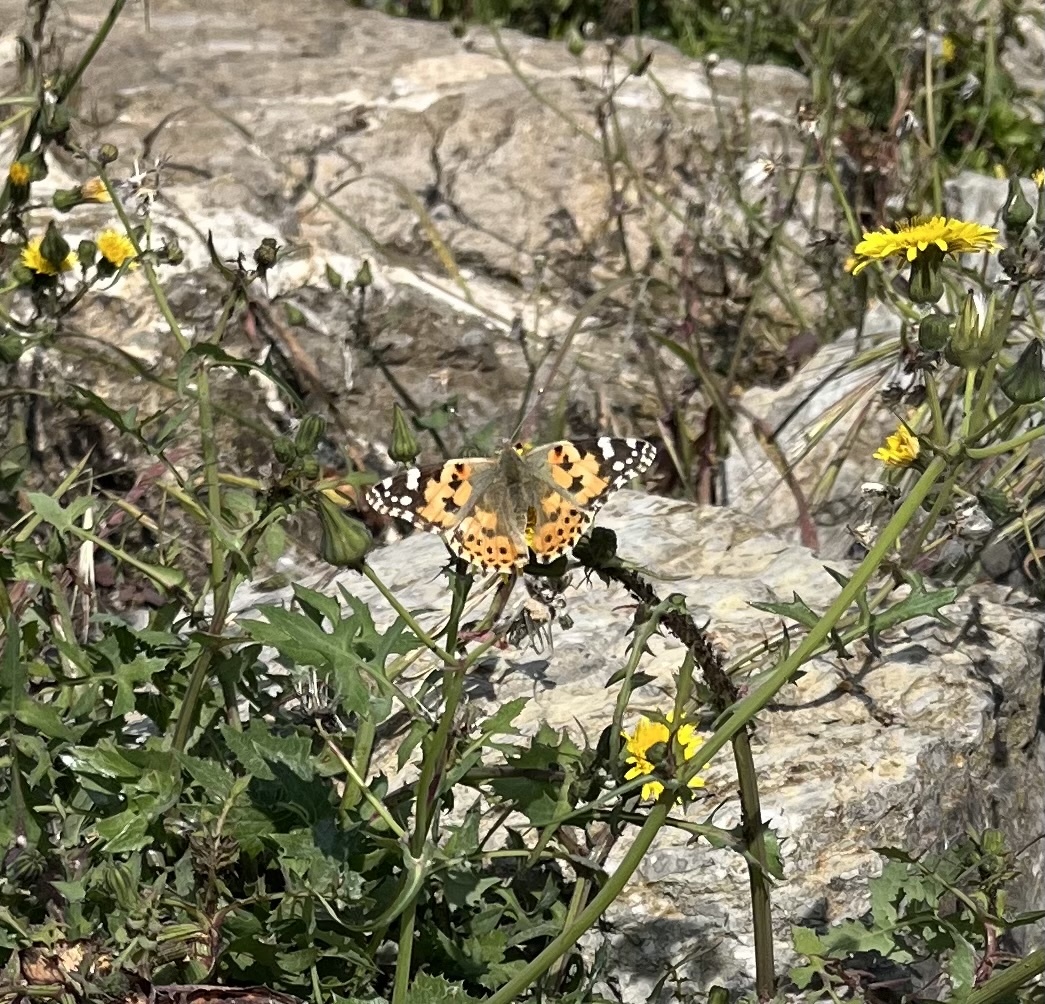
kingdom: Animalia
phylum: Arthropoda
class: Insecta
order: Lepidoptera
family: Nymphalidae
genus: Vanessa
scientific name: Vanessa cardui
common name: Painted lady
